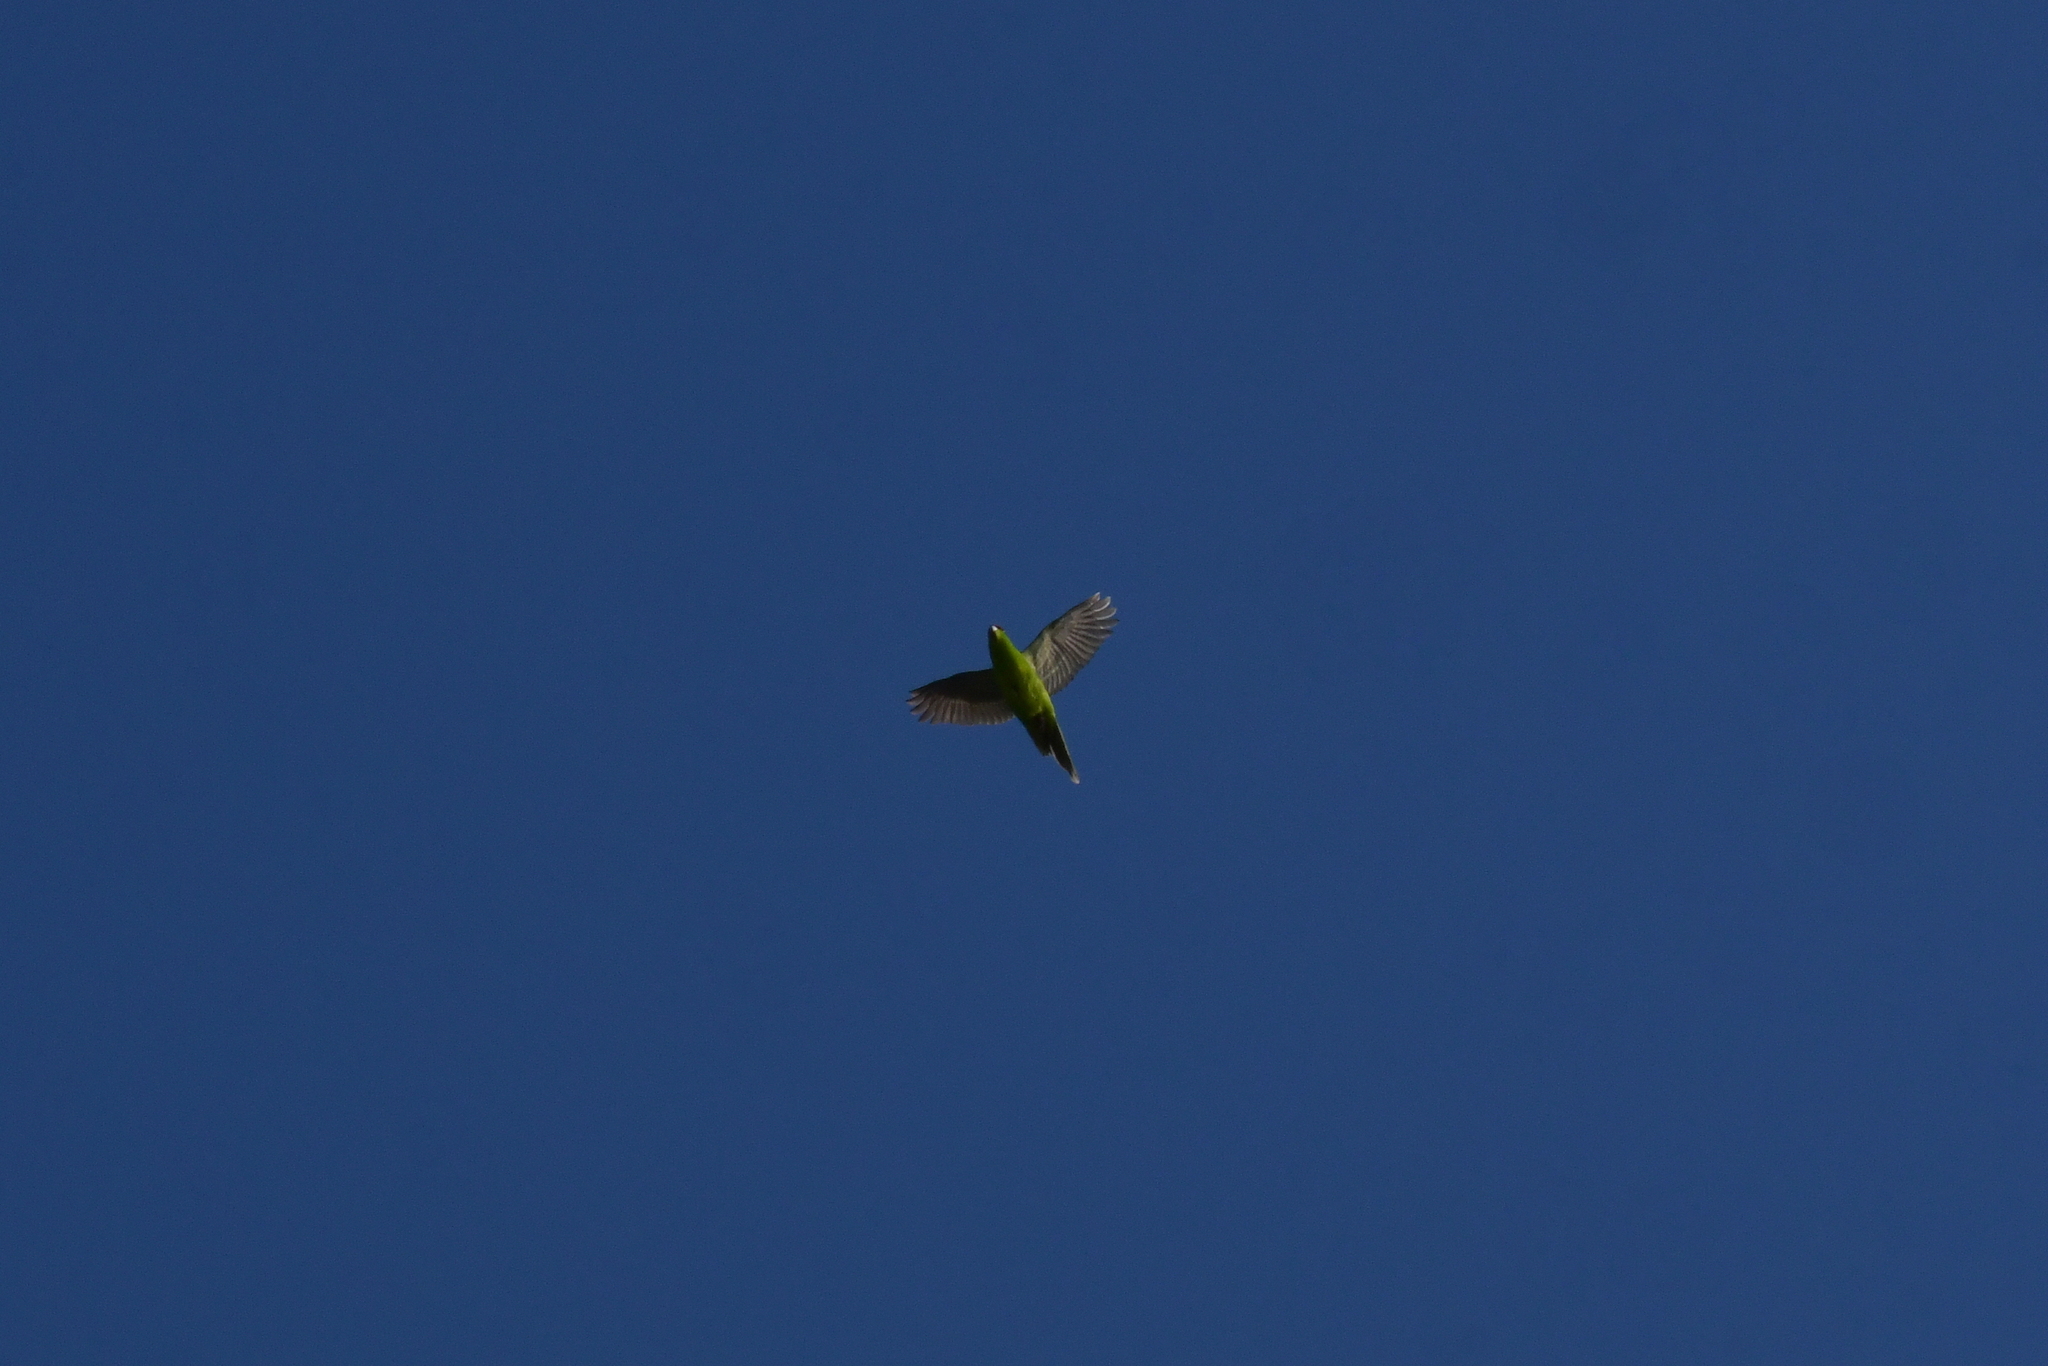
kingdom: Animalia
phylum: Chordata
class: Aves
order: Psittaciformes
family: Psittacidae
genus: Cyanoramphus
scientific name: Cyanoramphus novaezelandiae
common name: Red-fronted parakeet
